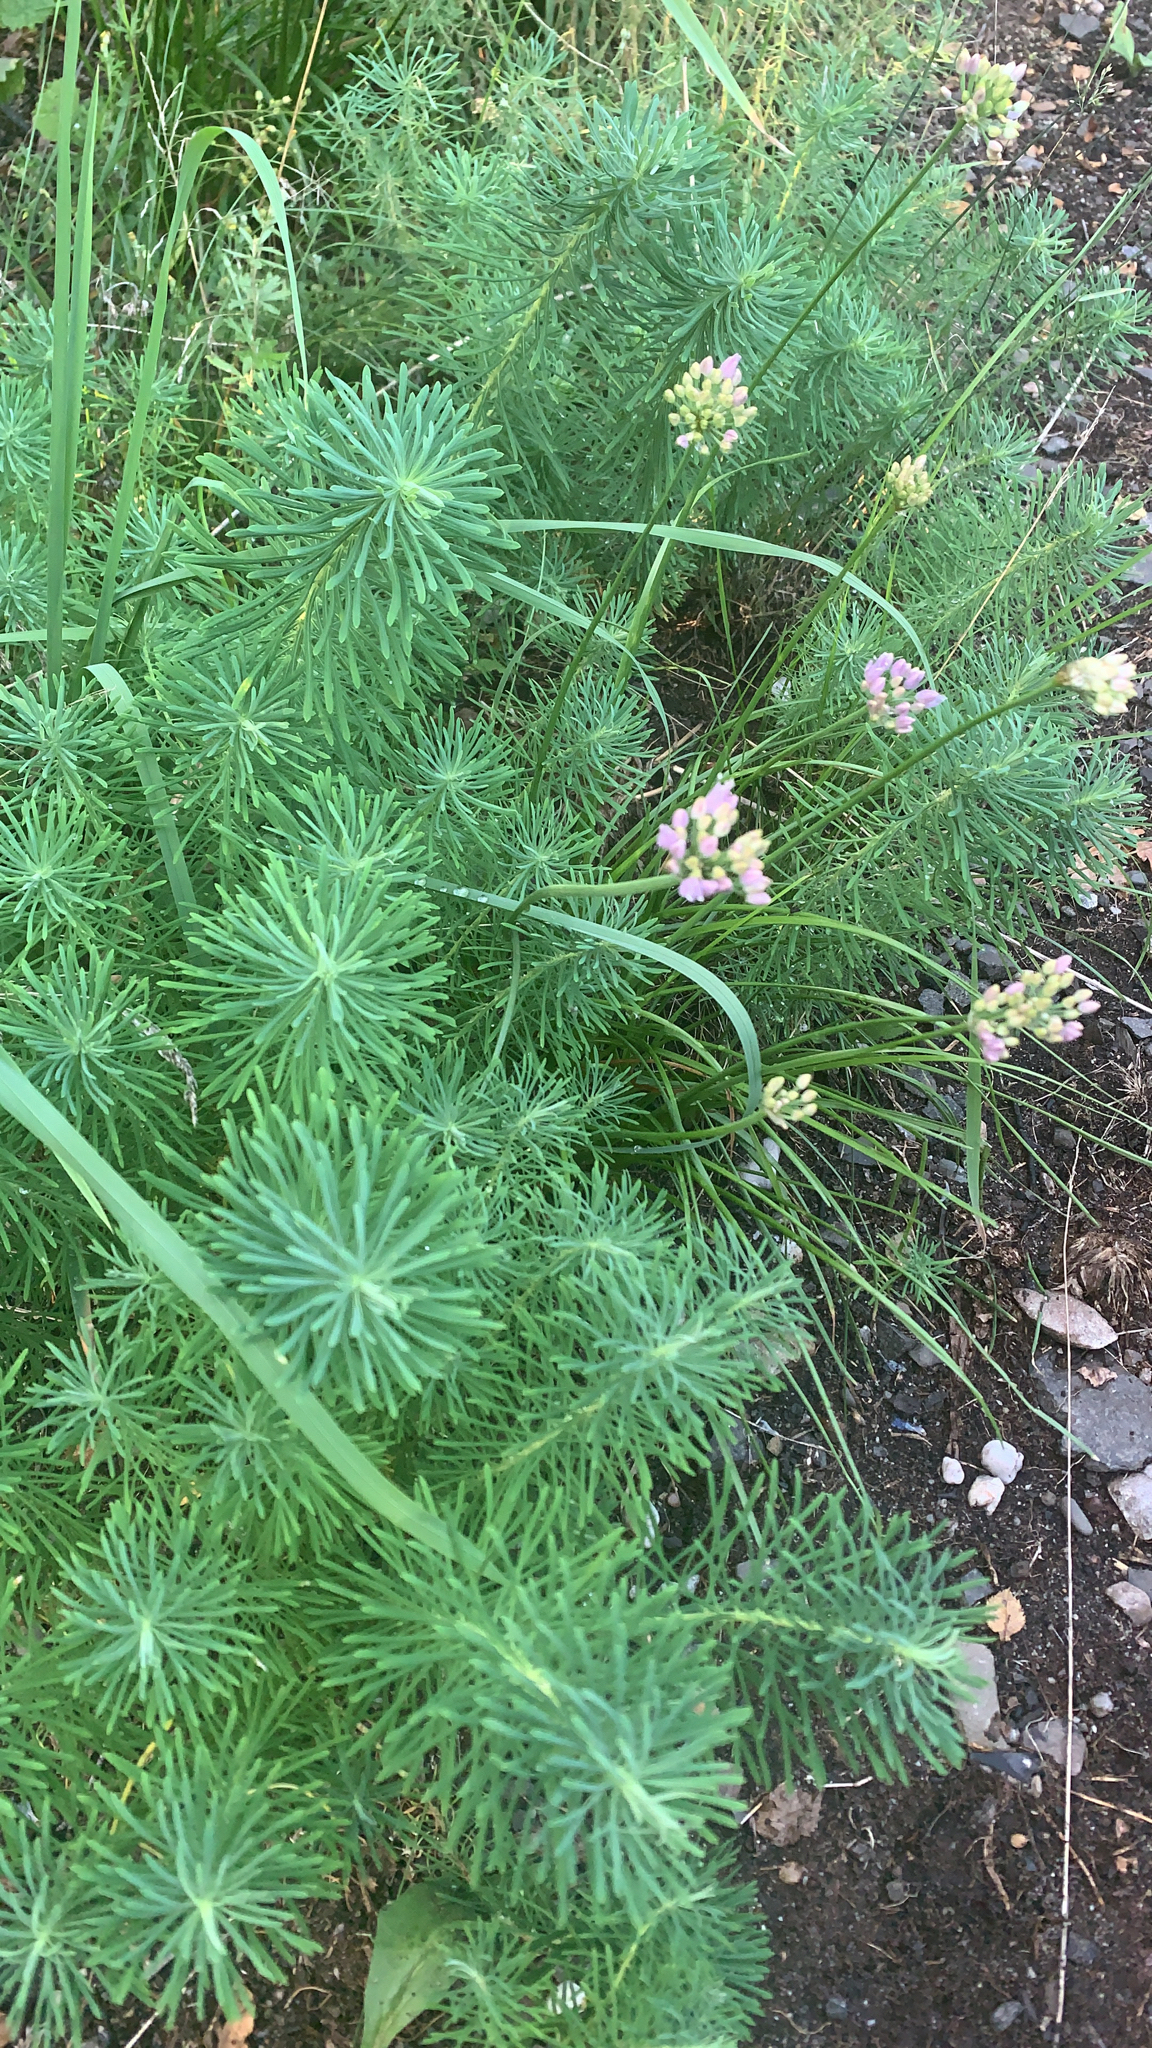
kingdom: Plantae
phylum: Tracheophyta
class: Magnoliopsida
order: Malpighiales
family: Euphorbiaceae
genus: Euphorbia
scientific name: Euphorbia cyparissias
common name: Cypress spurge
